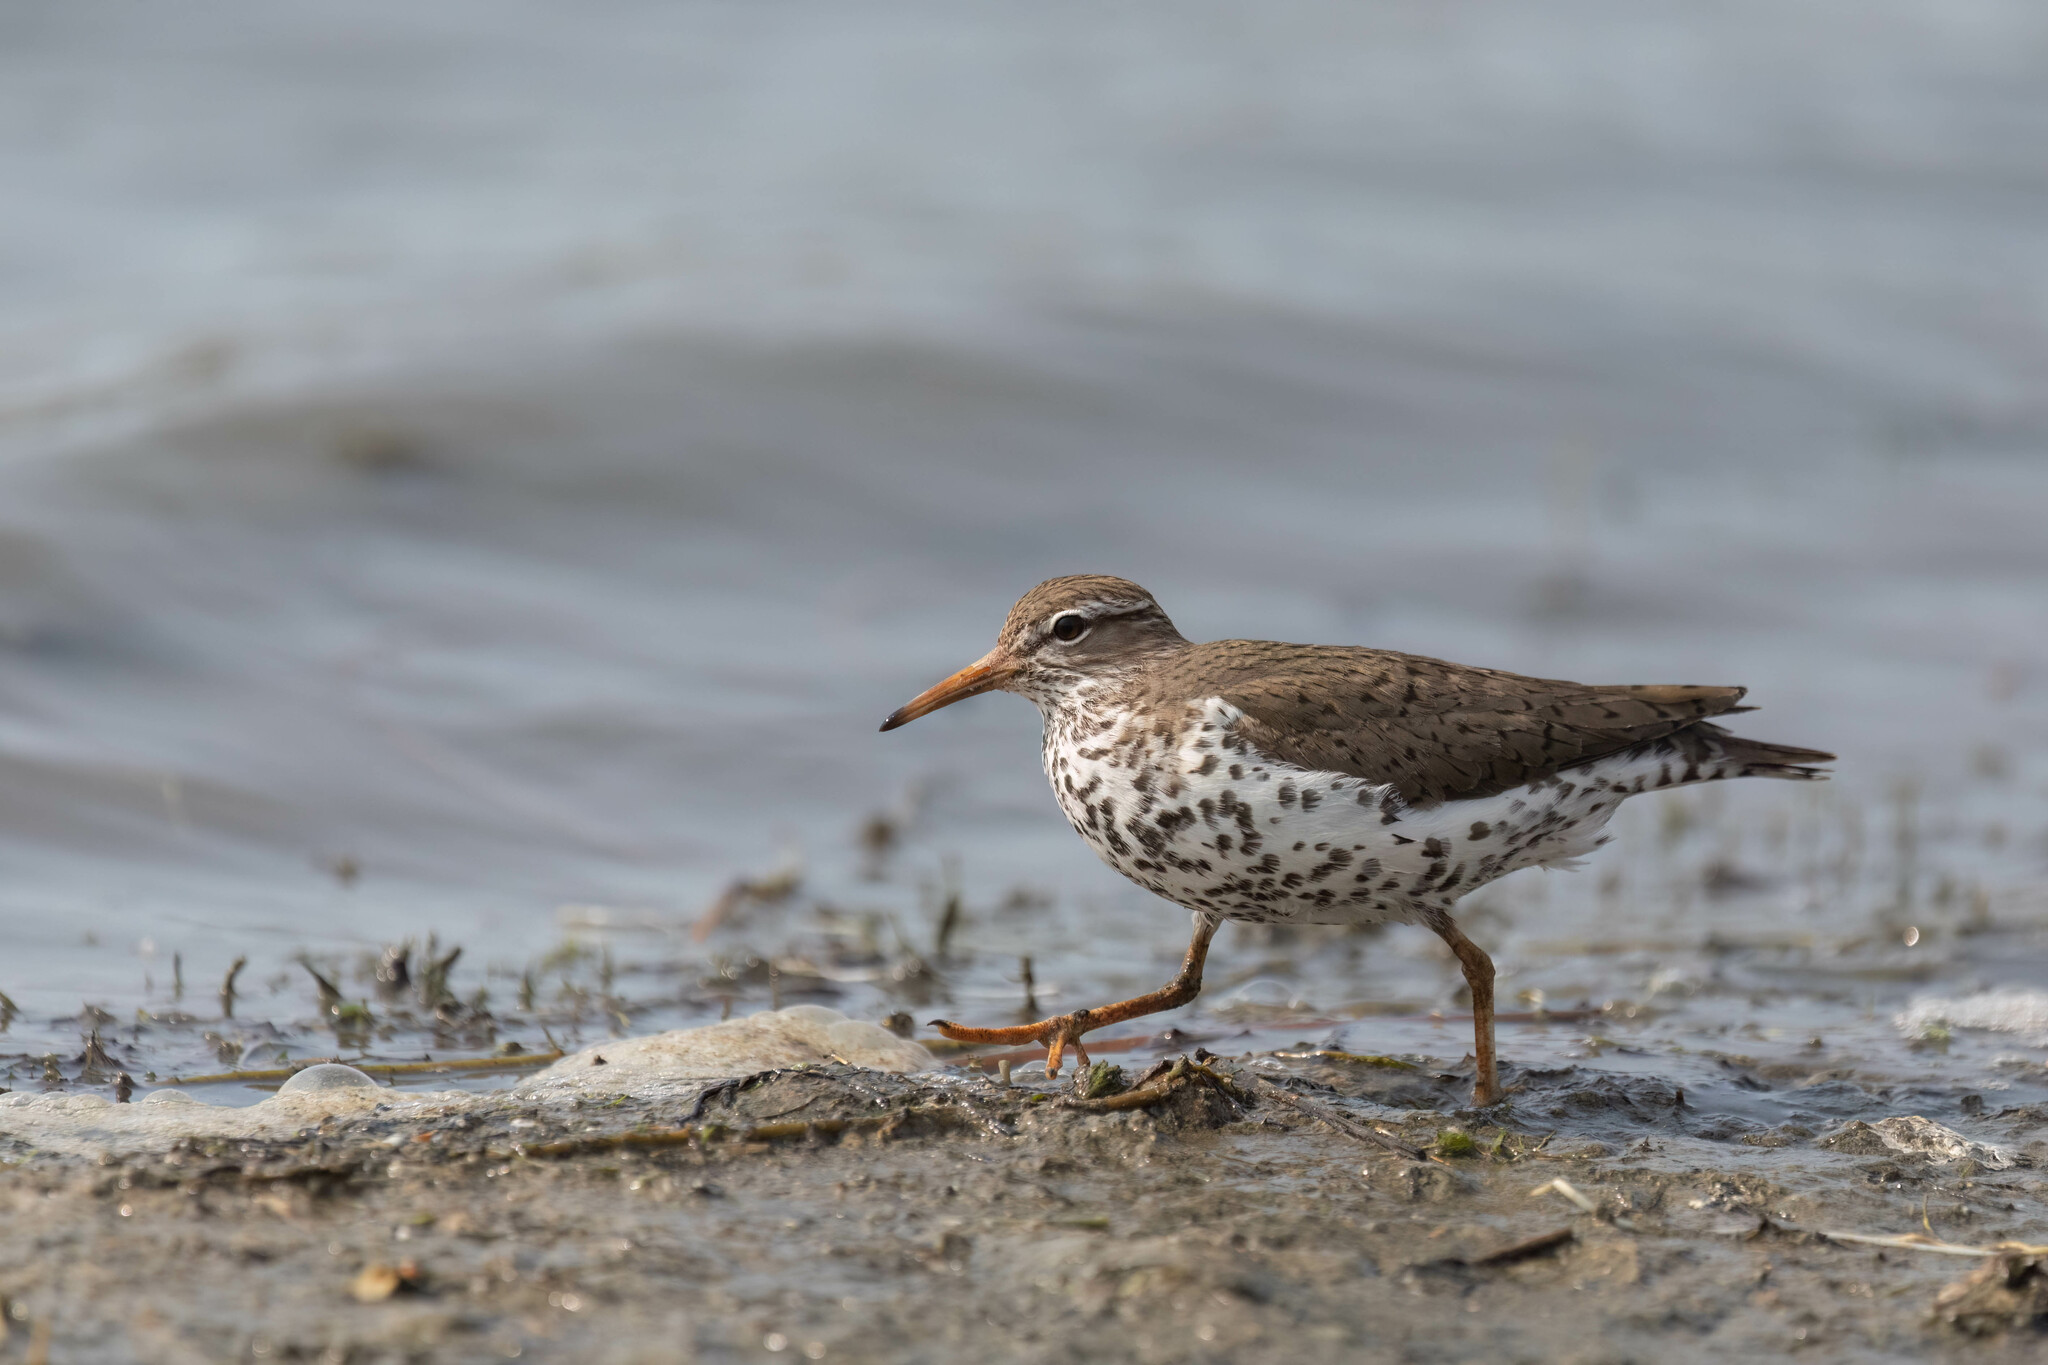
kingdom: Animalia
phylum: Chordata
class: Aves
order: Charadriiformes
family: Scolopacidae
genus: Actitis
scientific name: Actitis macularius
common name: Spotted sandpiper
